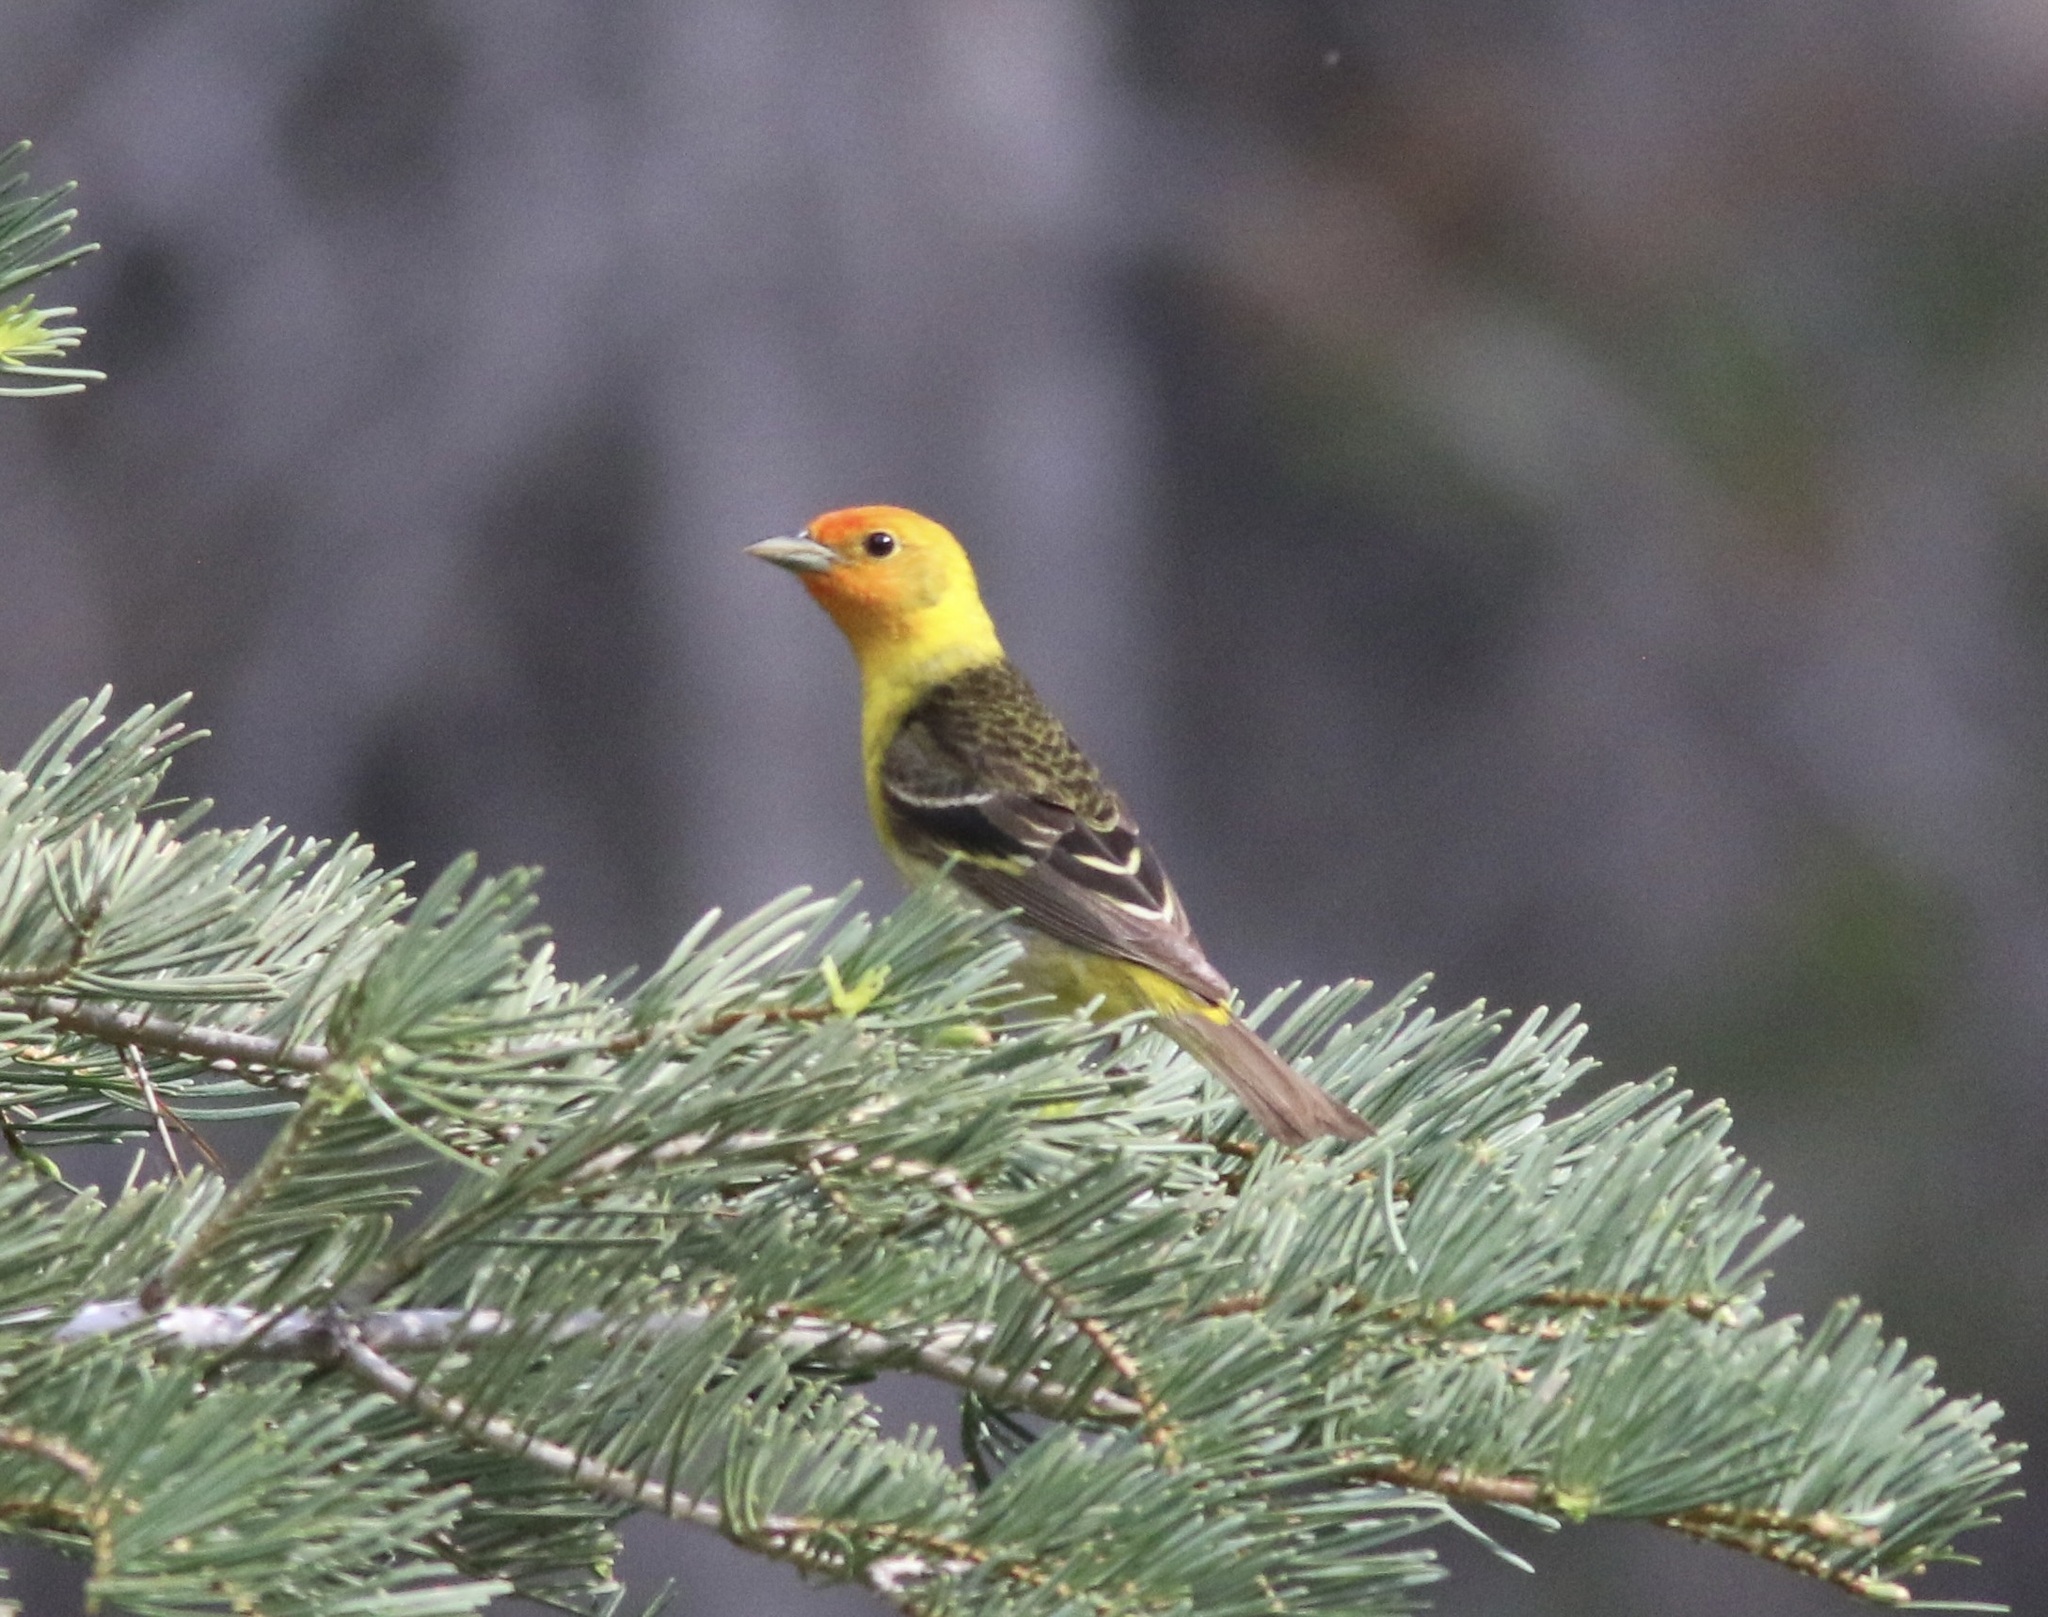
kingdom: Animalia
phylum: Chordata
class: Aves
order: Passeriformes
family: Cardinalidae
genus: Piranga
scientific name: Piranga ludoviciana
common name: Western tanager
